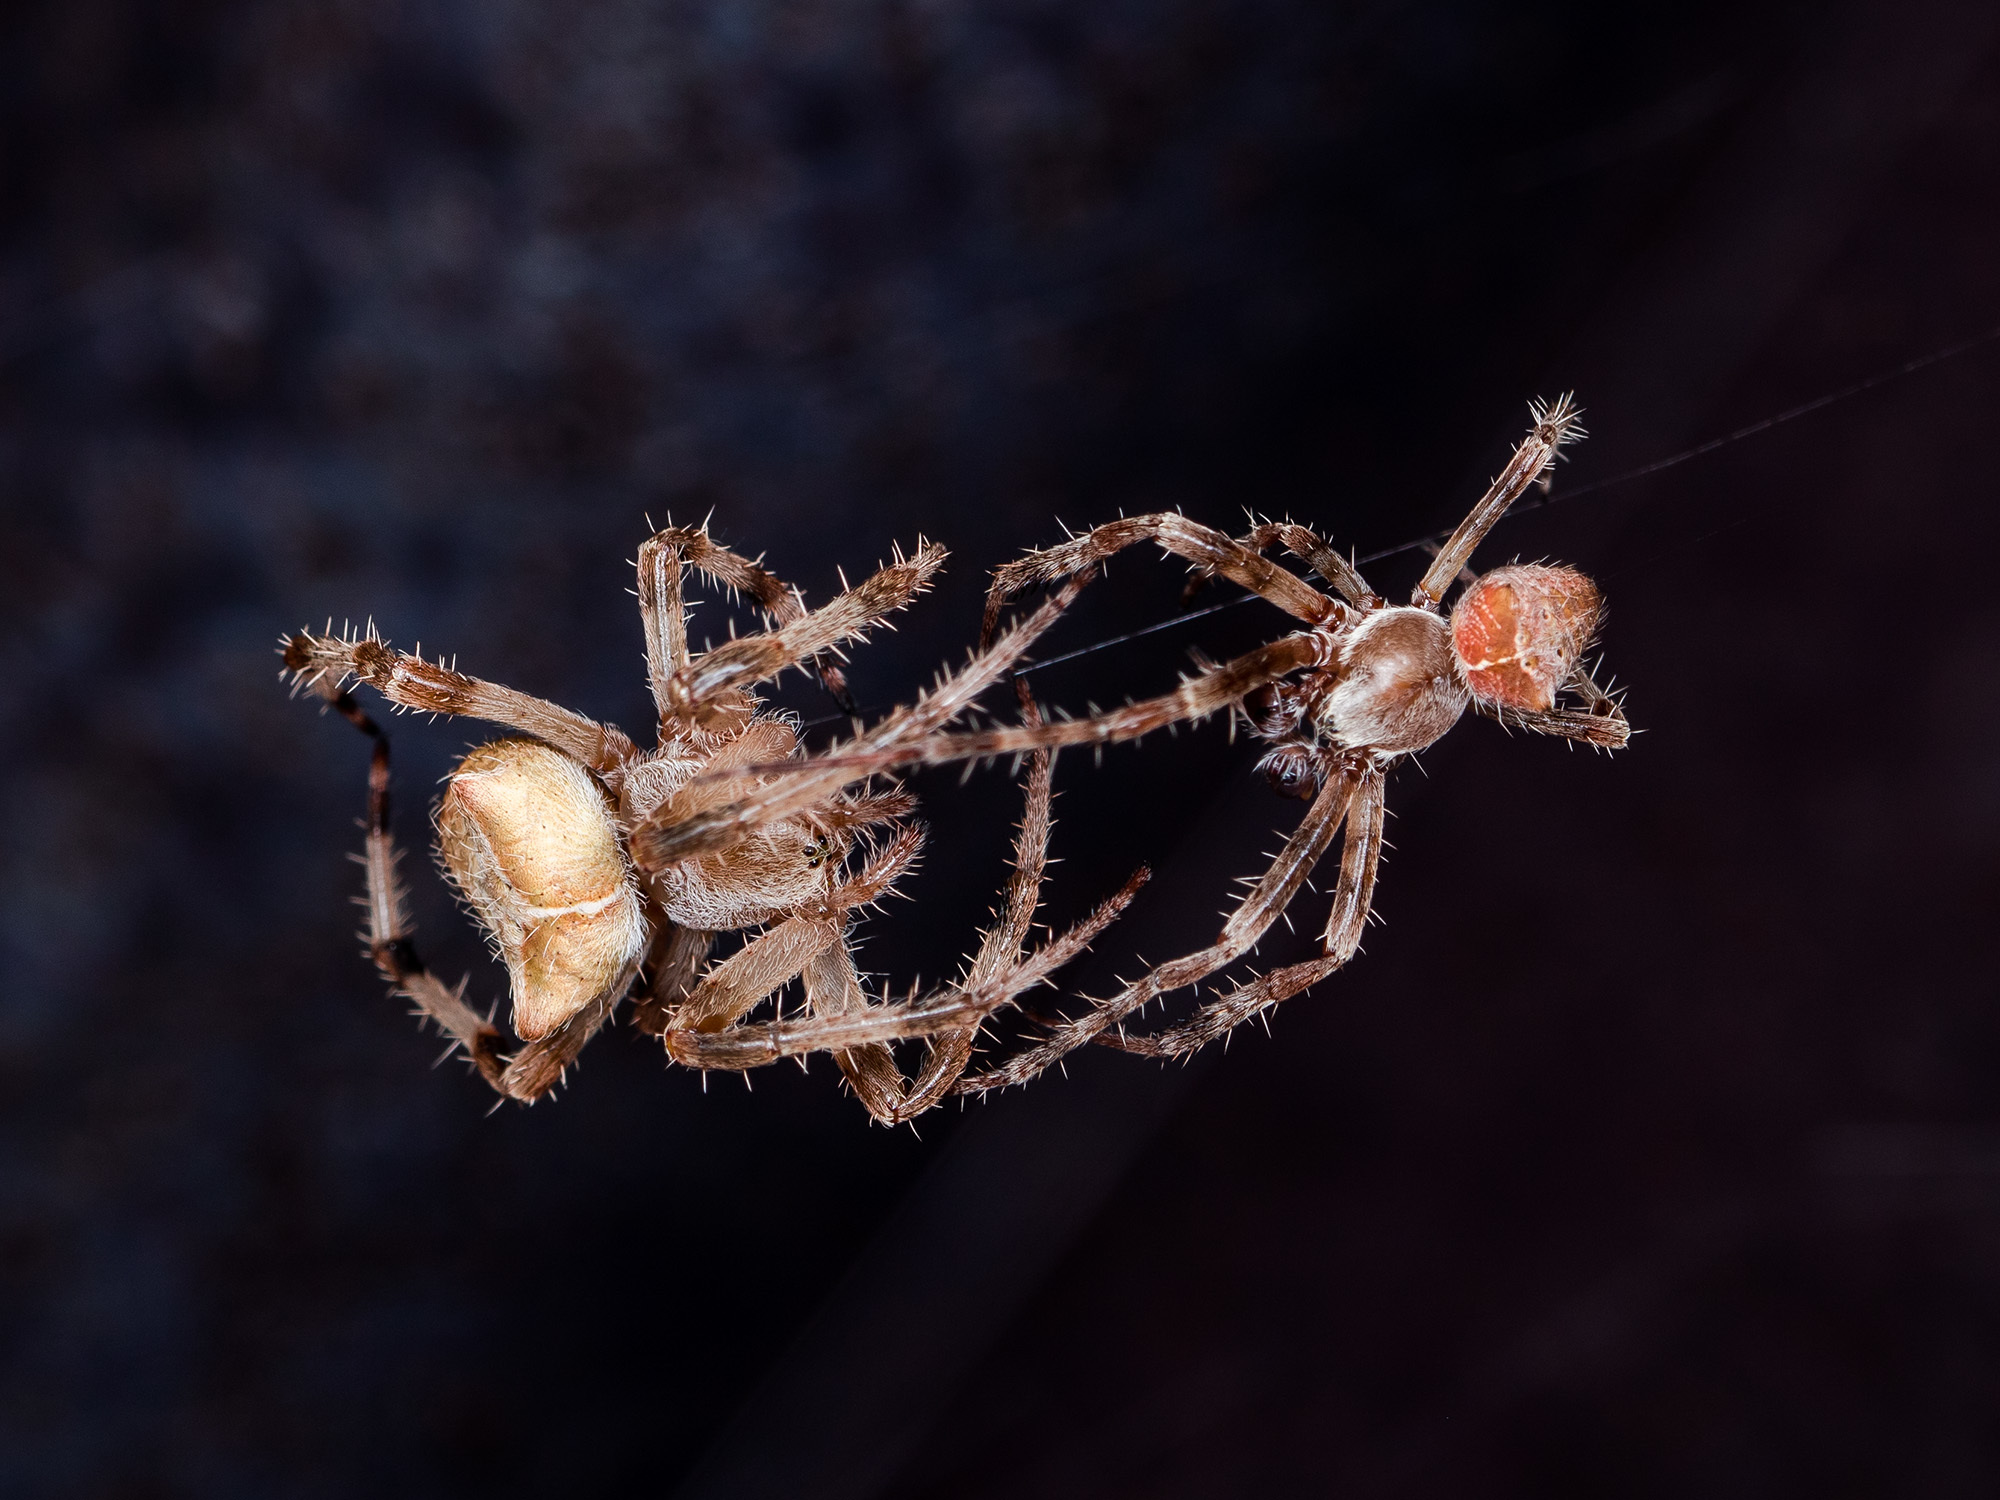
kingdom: Animalia
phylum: Arthropoda
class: Arachnida
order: Araneae
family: Araneidae
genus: Araneus
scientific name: Araneus tartaricus
